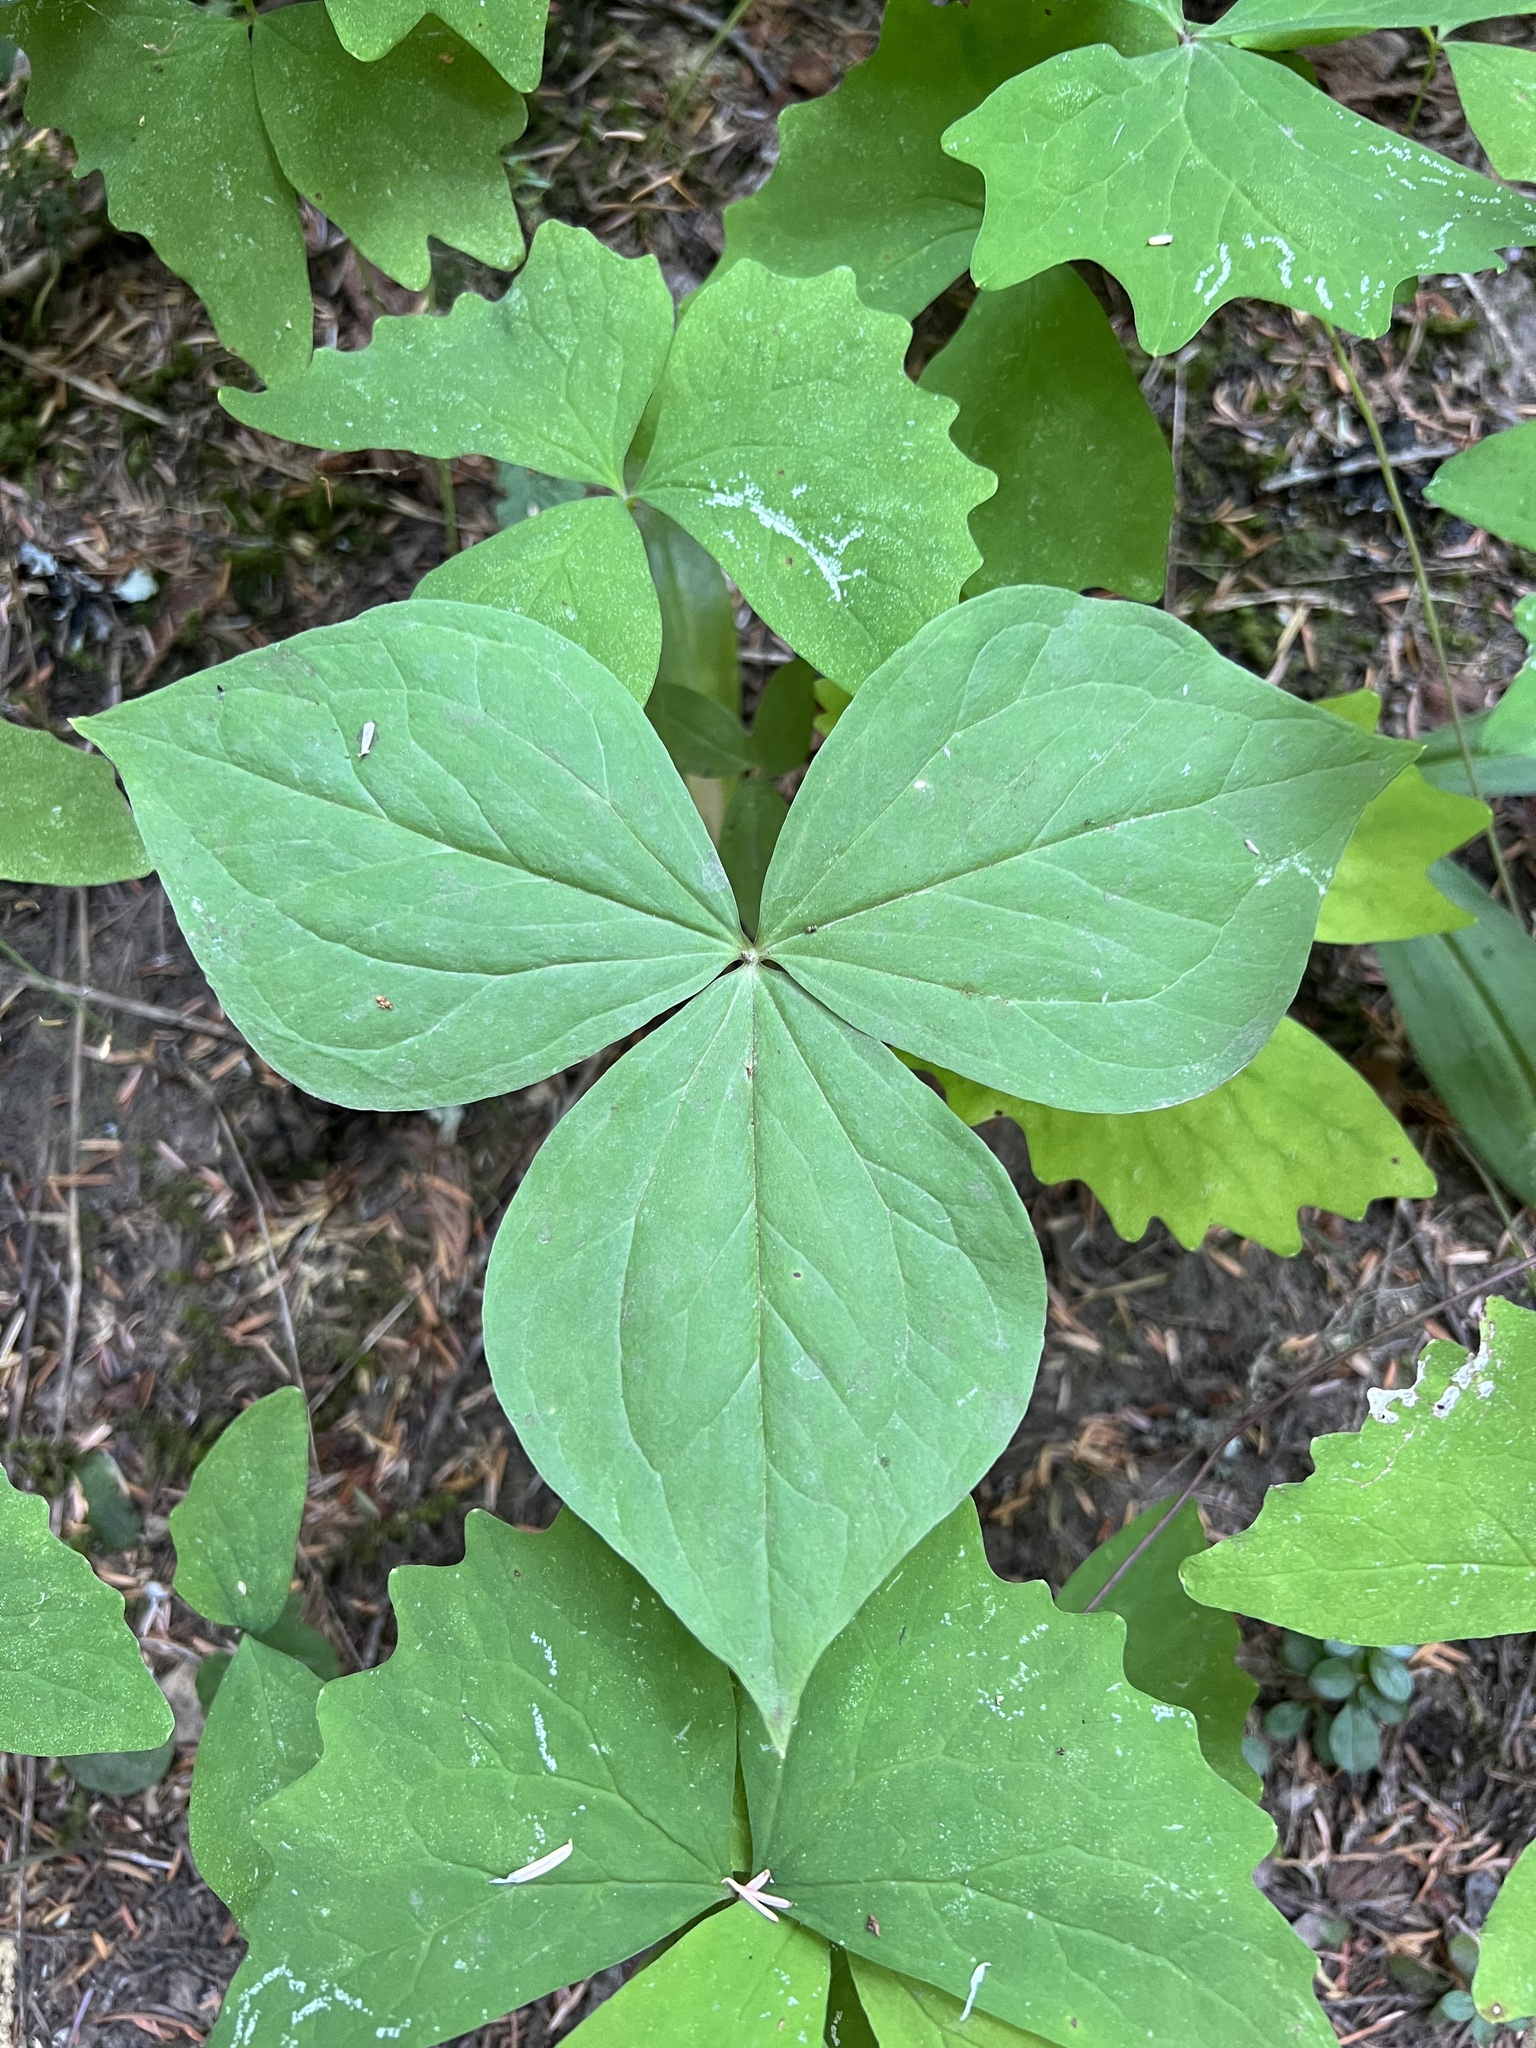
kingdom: Plantae
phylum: Tracheophyta
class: Liliopsida
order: Liliales
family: Melanthiaceae
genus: Trillium
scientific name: Trillium ovatum
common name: Pacific trillium
